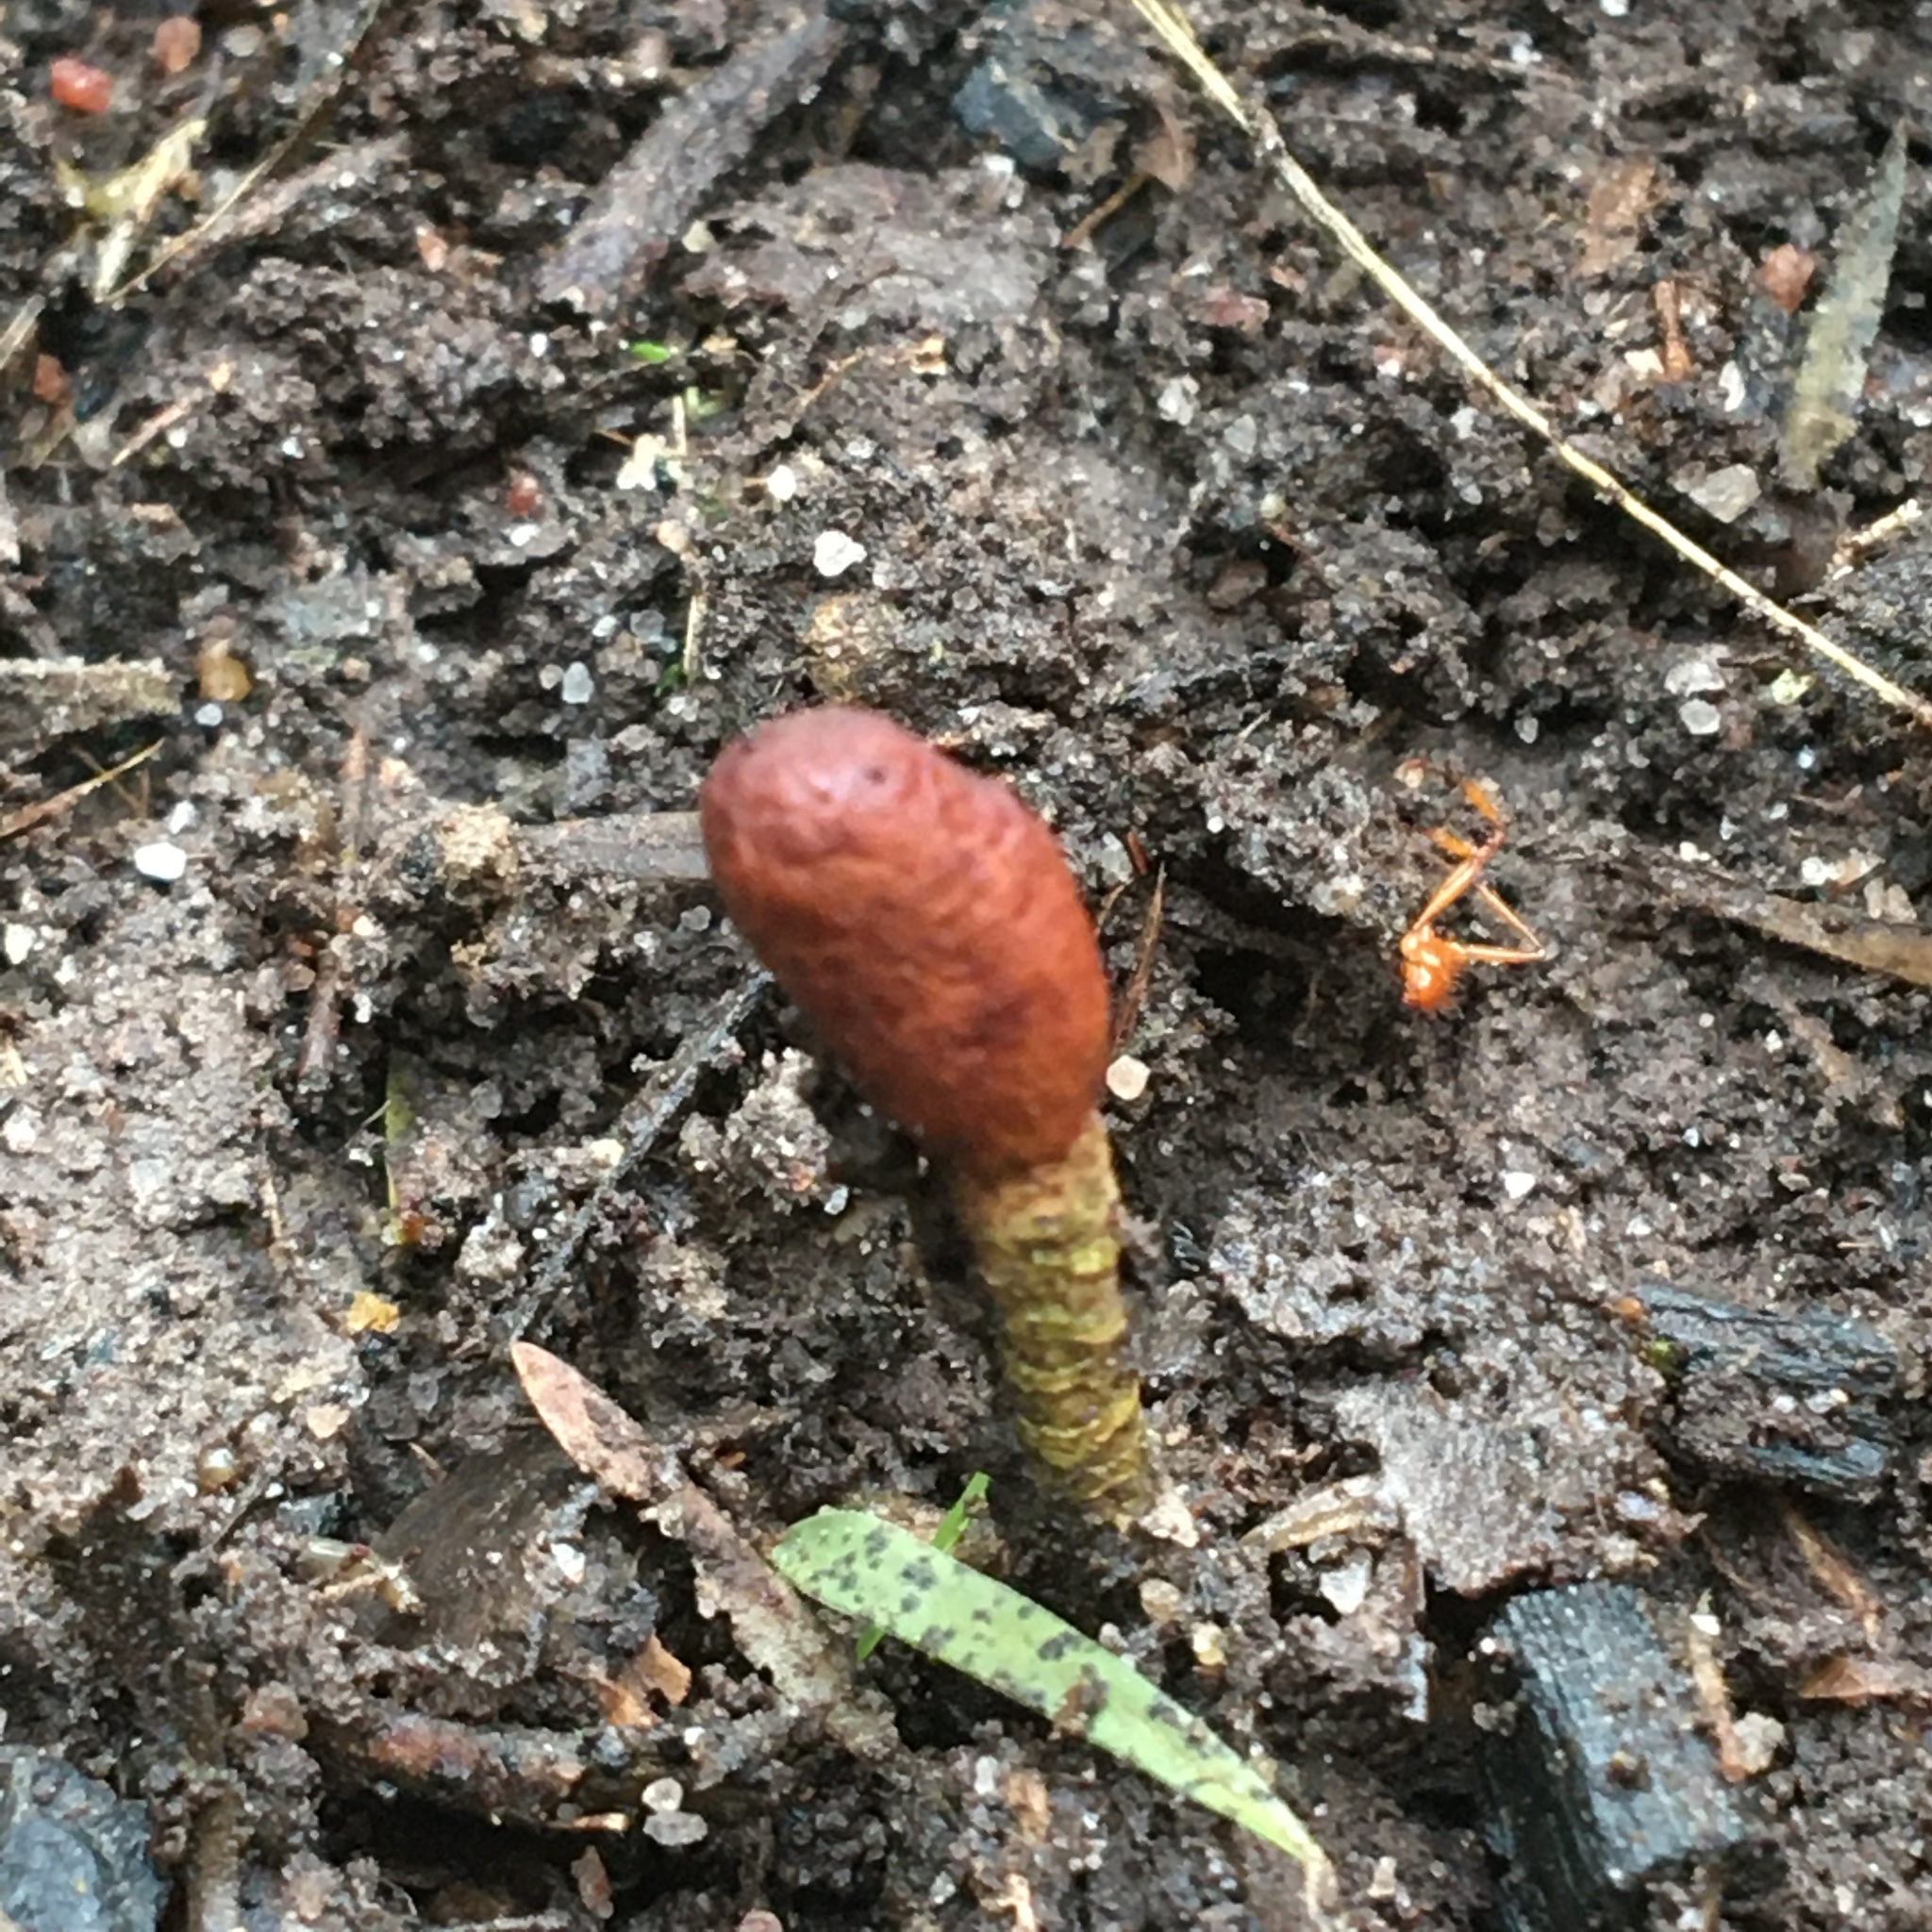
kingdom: Fungi
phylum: Ascomycota
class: Sordariomycetes
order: Hypocreales
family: Cordycipitaceae
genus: Cordyceps
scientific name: Cordyceps meneristitis
